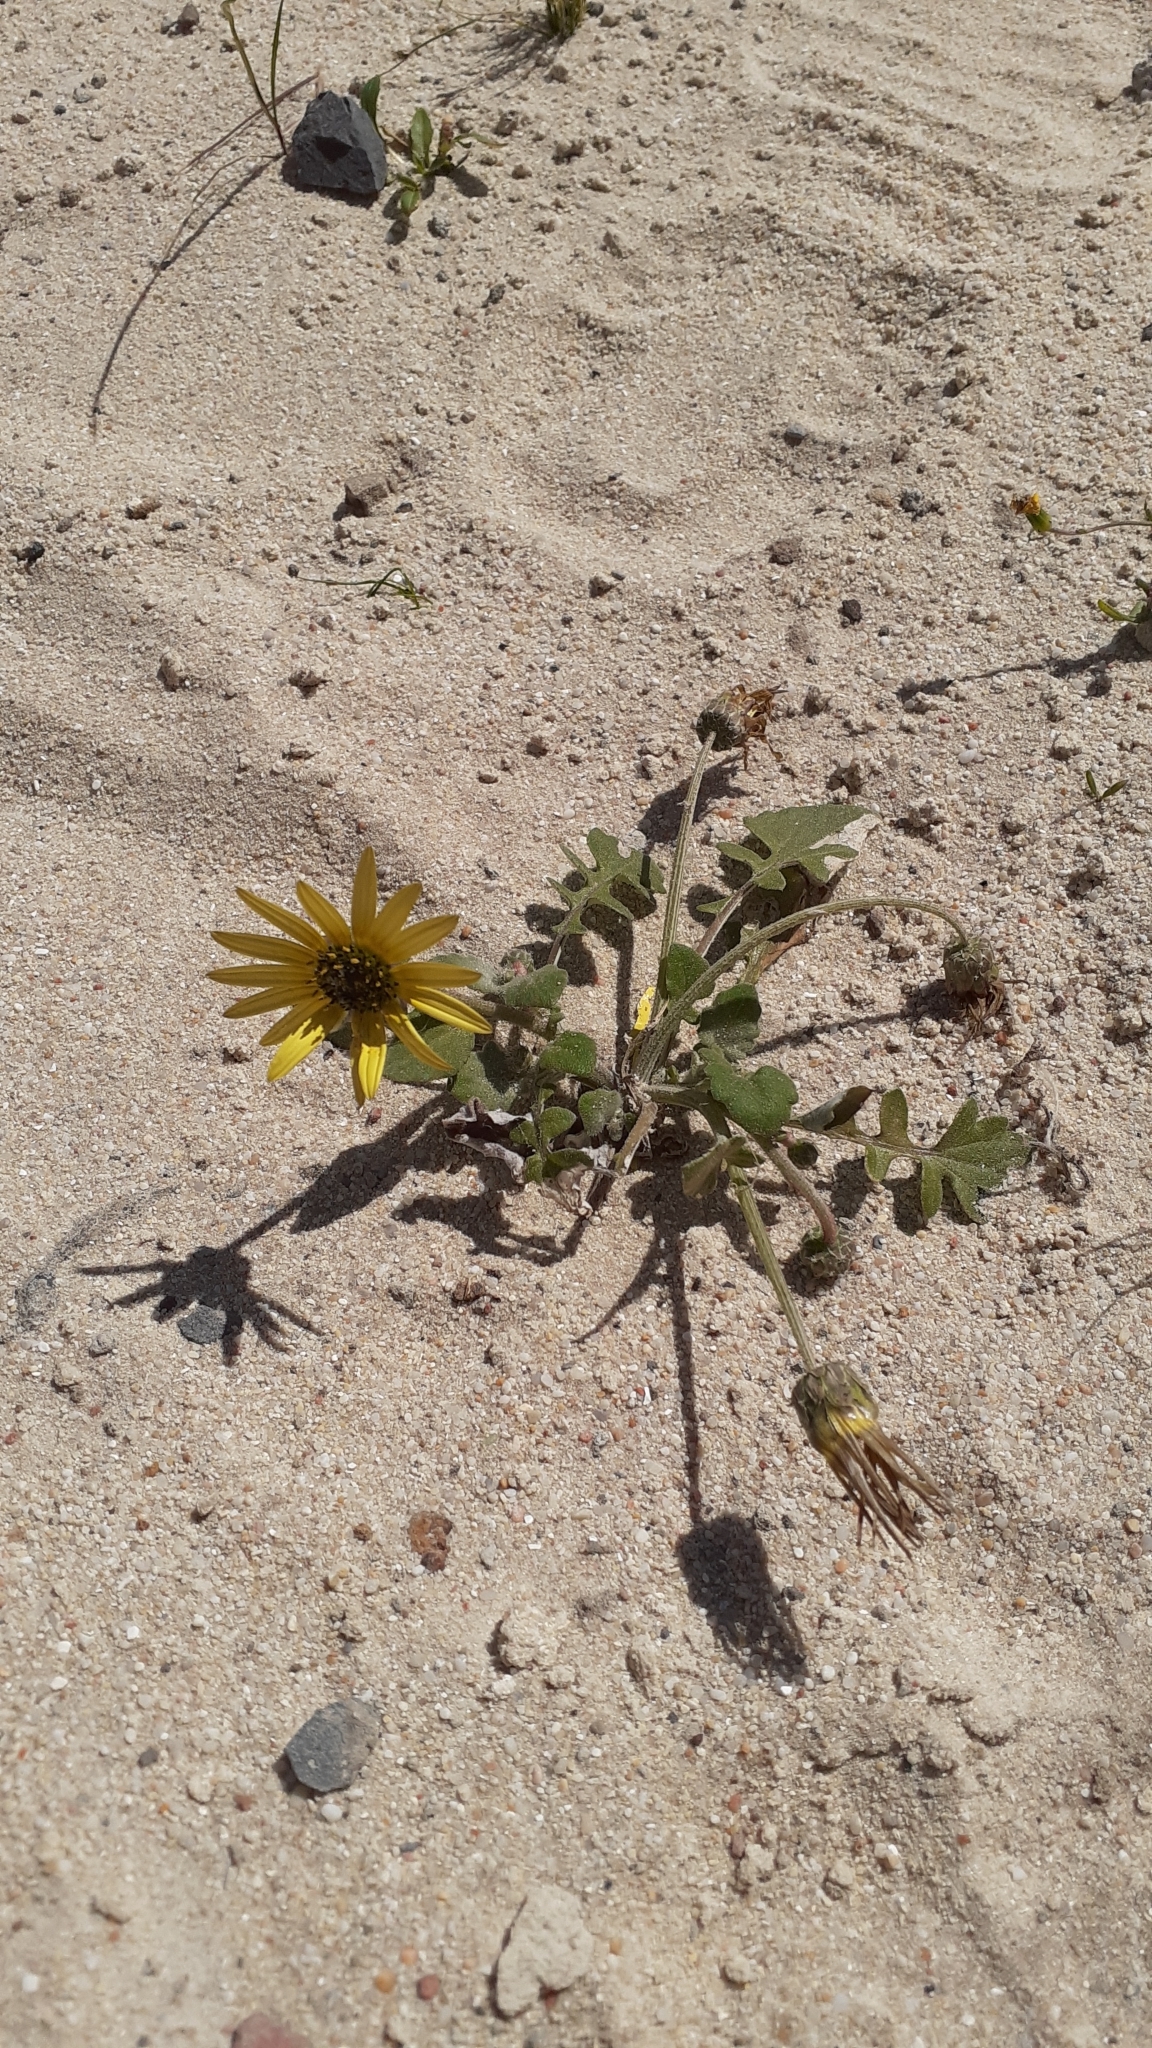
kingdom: Plantae
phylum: Tracheophyta
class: Magnoliopsida
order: Asterales
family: Asteraceae
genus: Arctotheca
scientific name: Arctotheca calendula
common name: Capeweed
